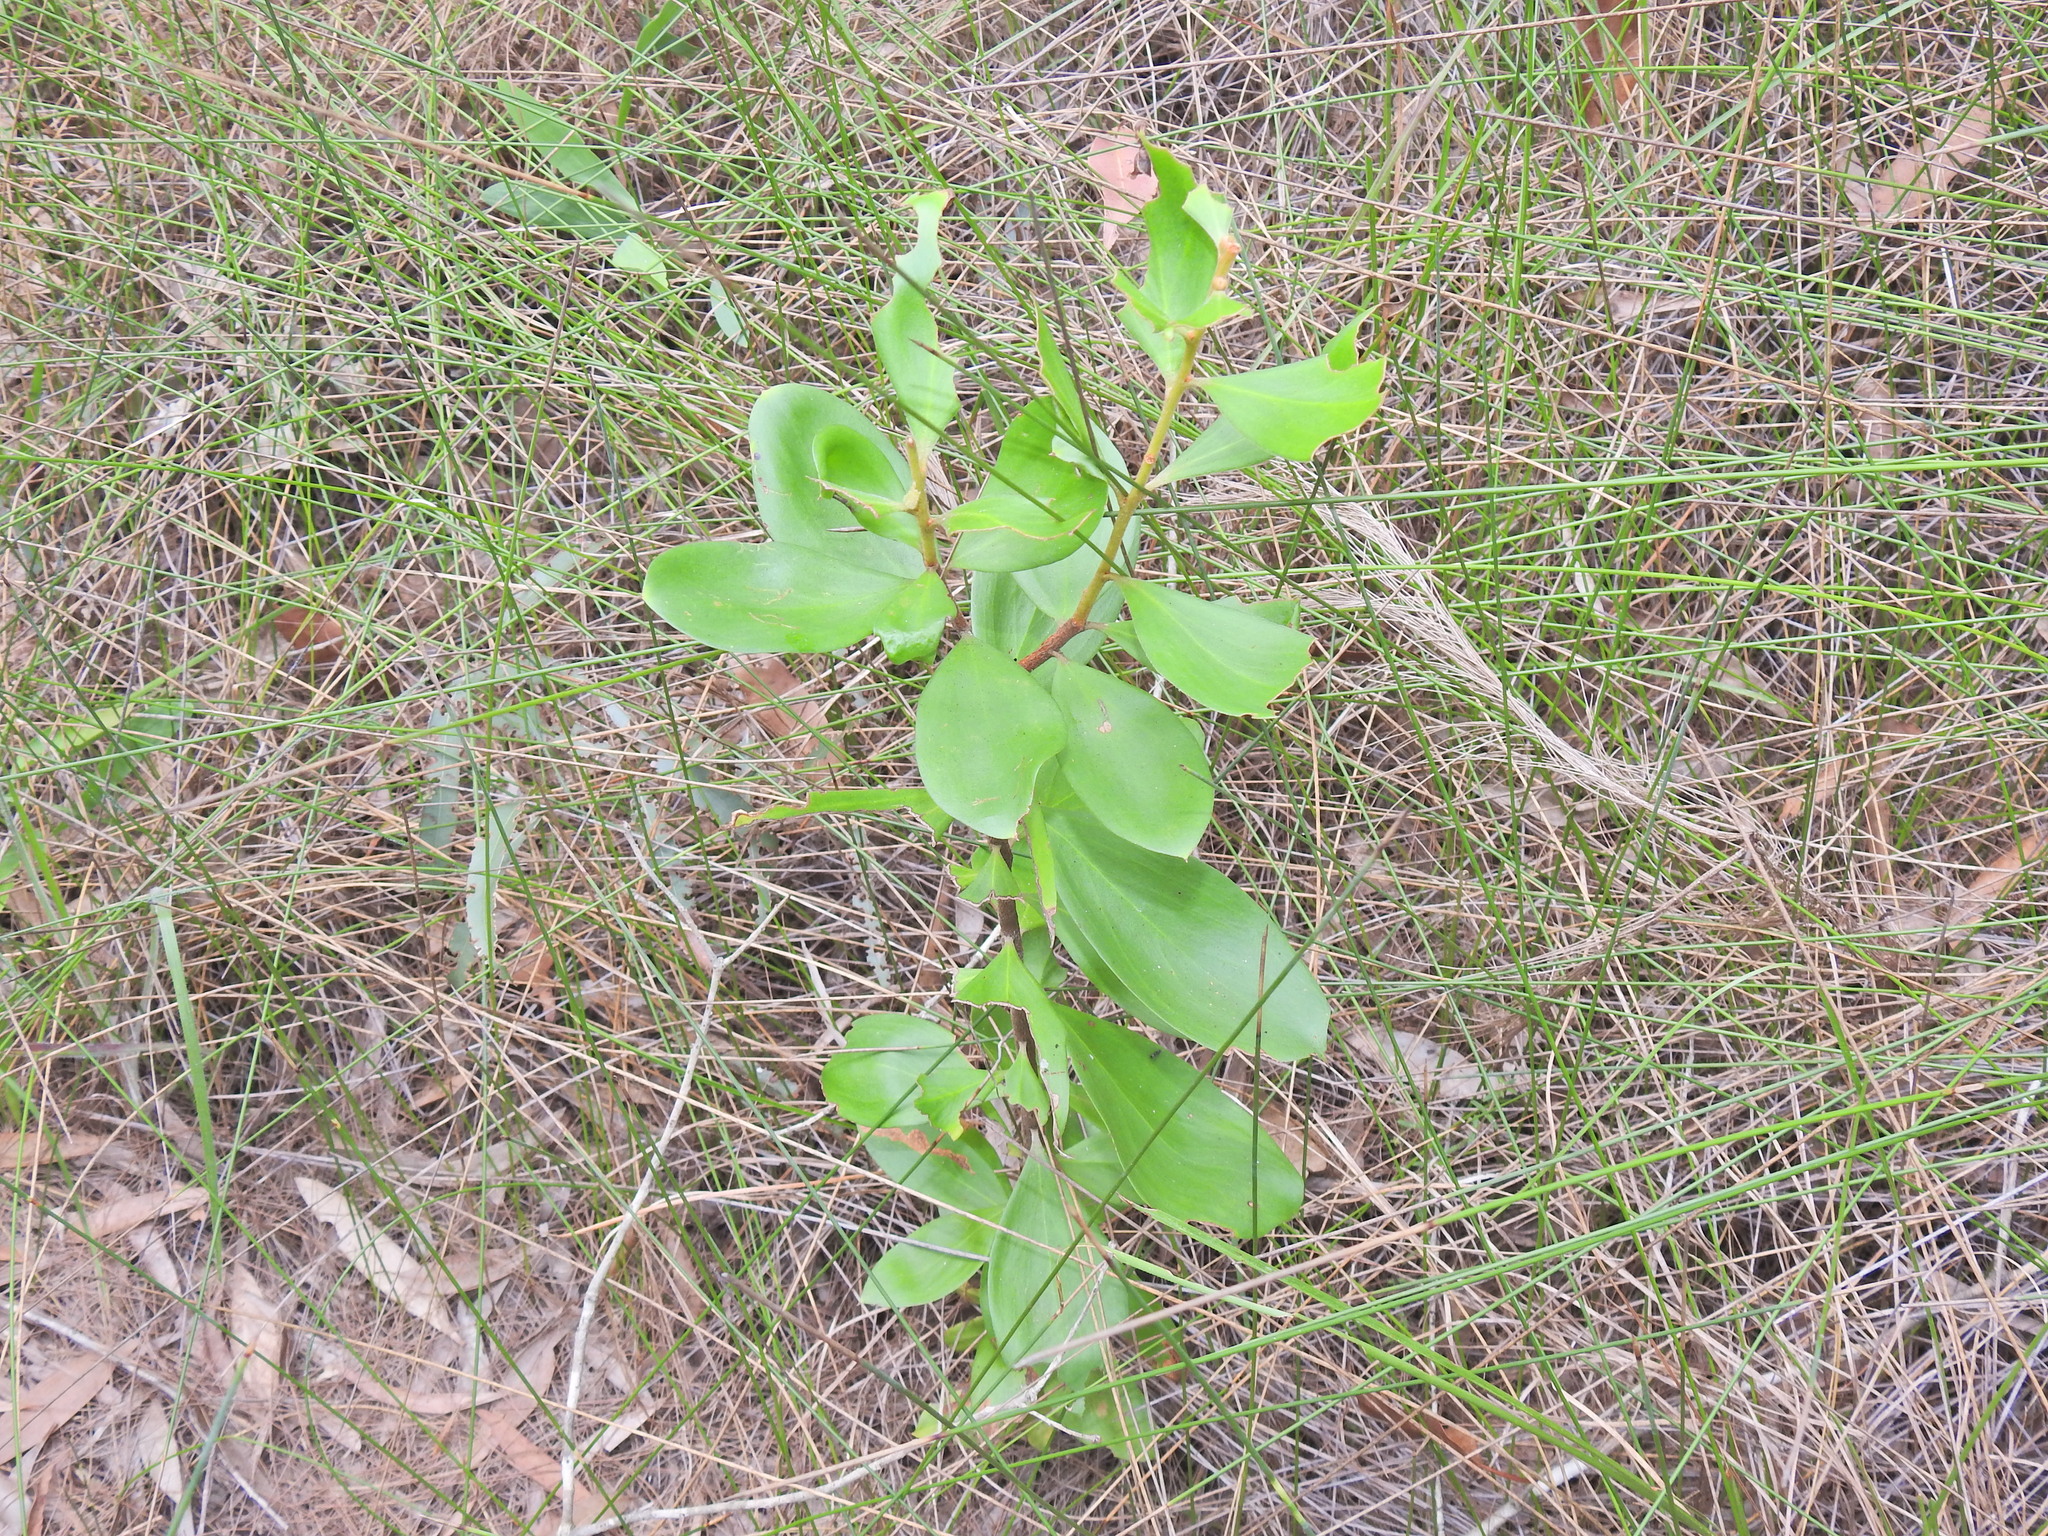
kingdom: Plantae
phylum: Tracheophyta
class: Magnoliopsida
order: Proteales
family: Proteaceae
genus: Persoonia
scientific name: Persoonia cornifolia
